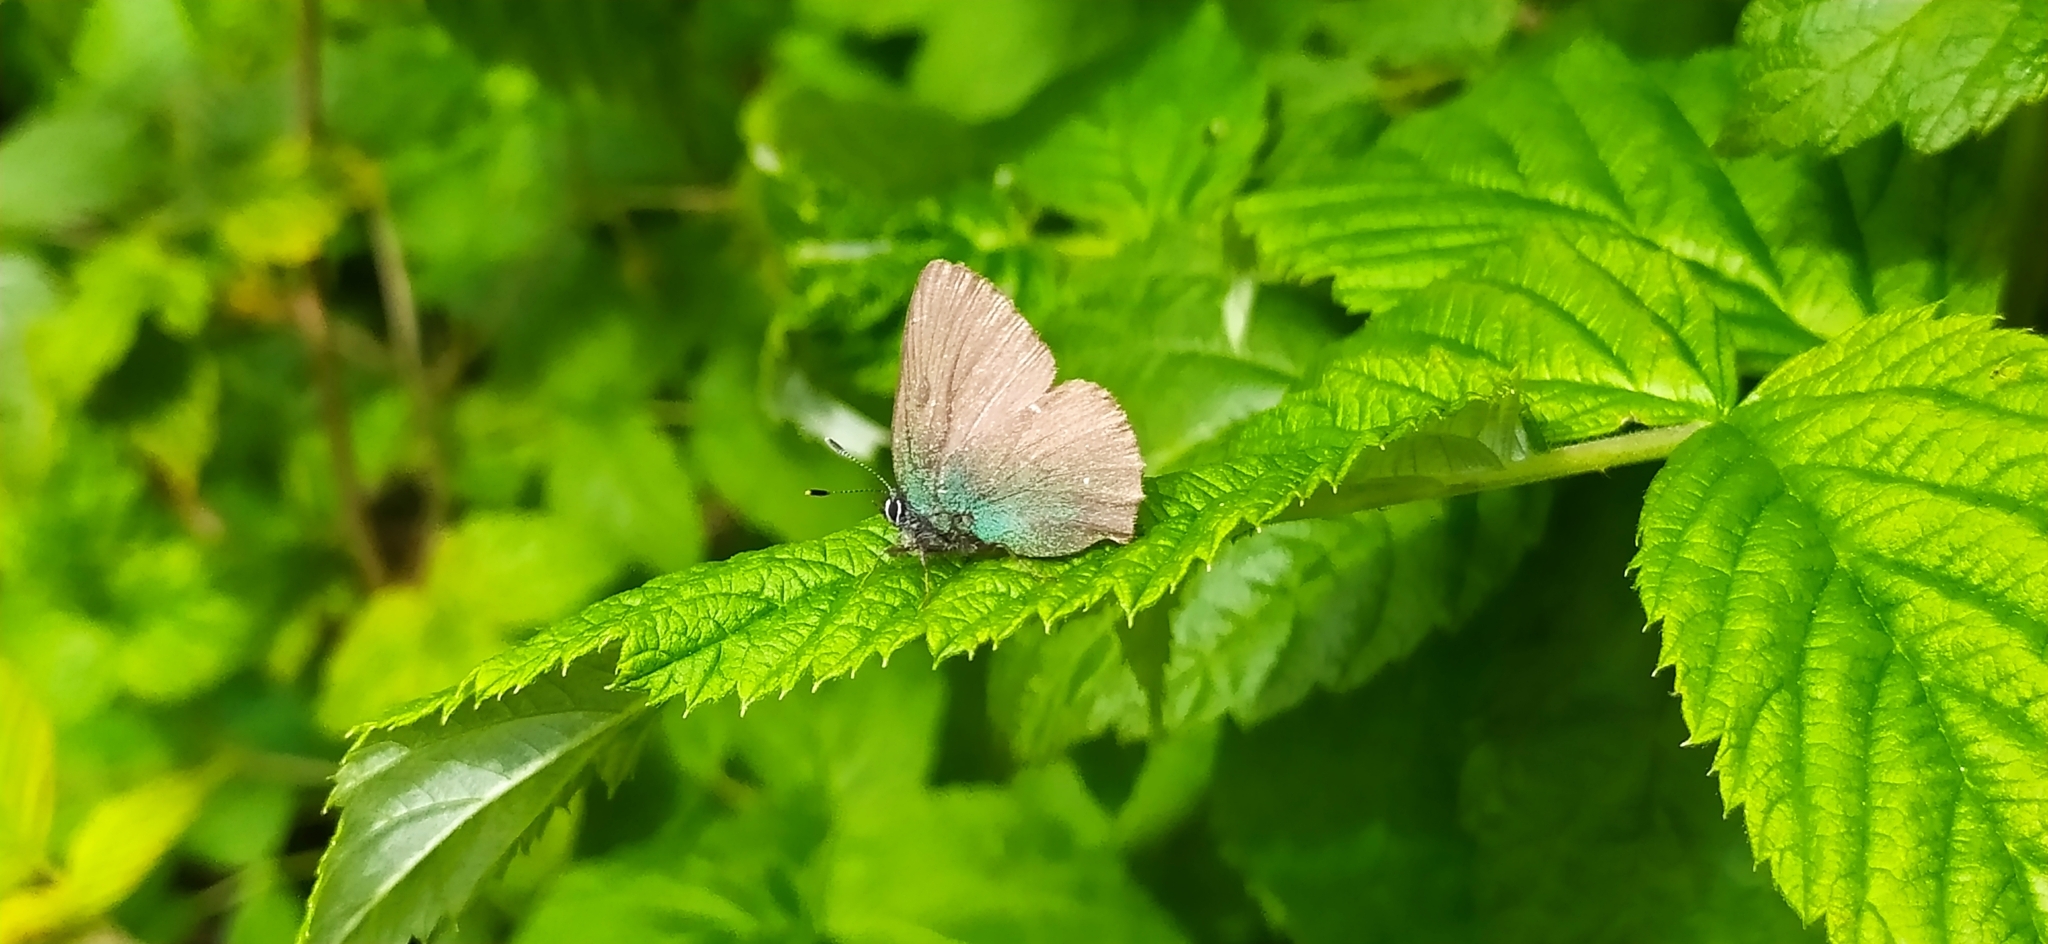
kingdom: Animalia
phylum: Arthropoda
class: Insecta
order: Lepidoptera
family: Lycaenidae
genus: Callophrys
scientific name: Callophrys rubi
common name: Green hairstreak
